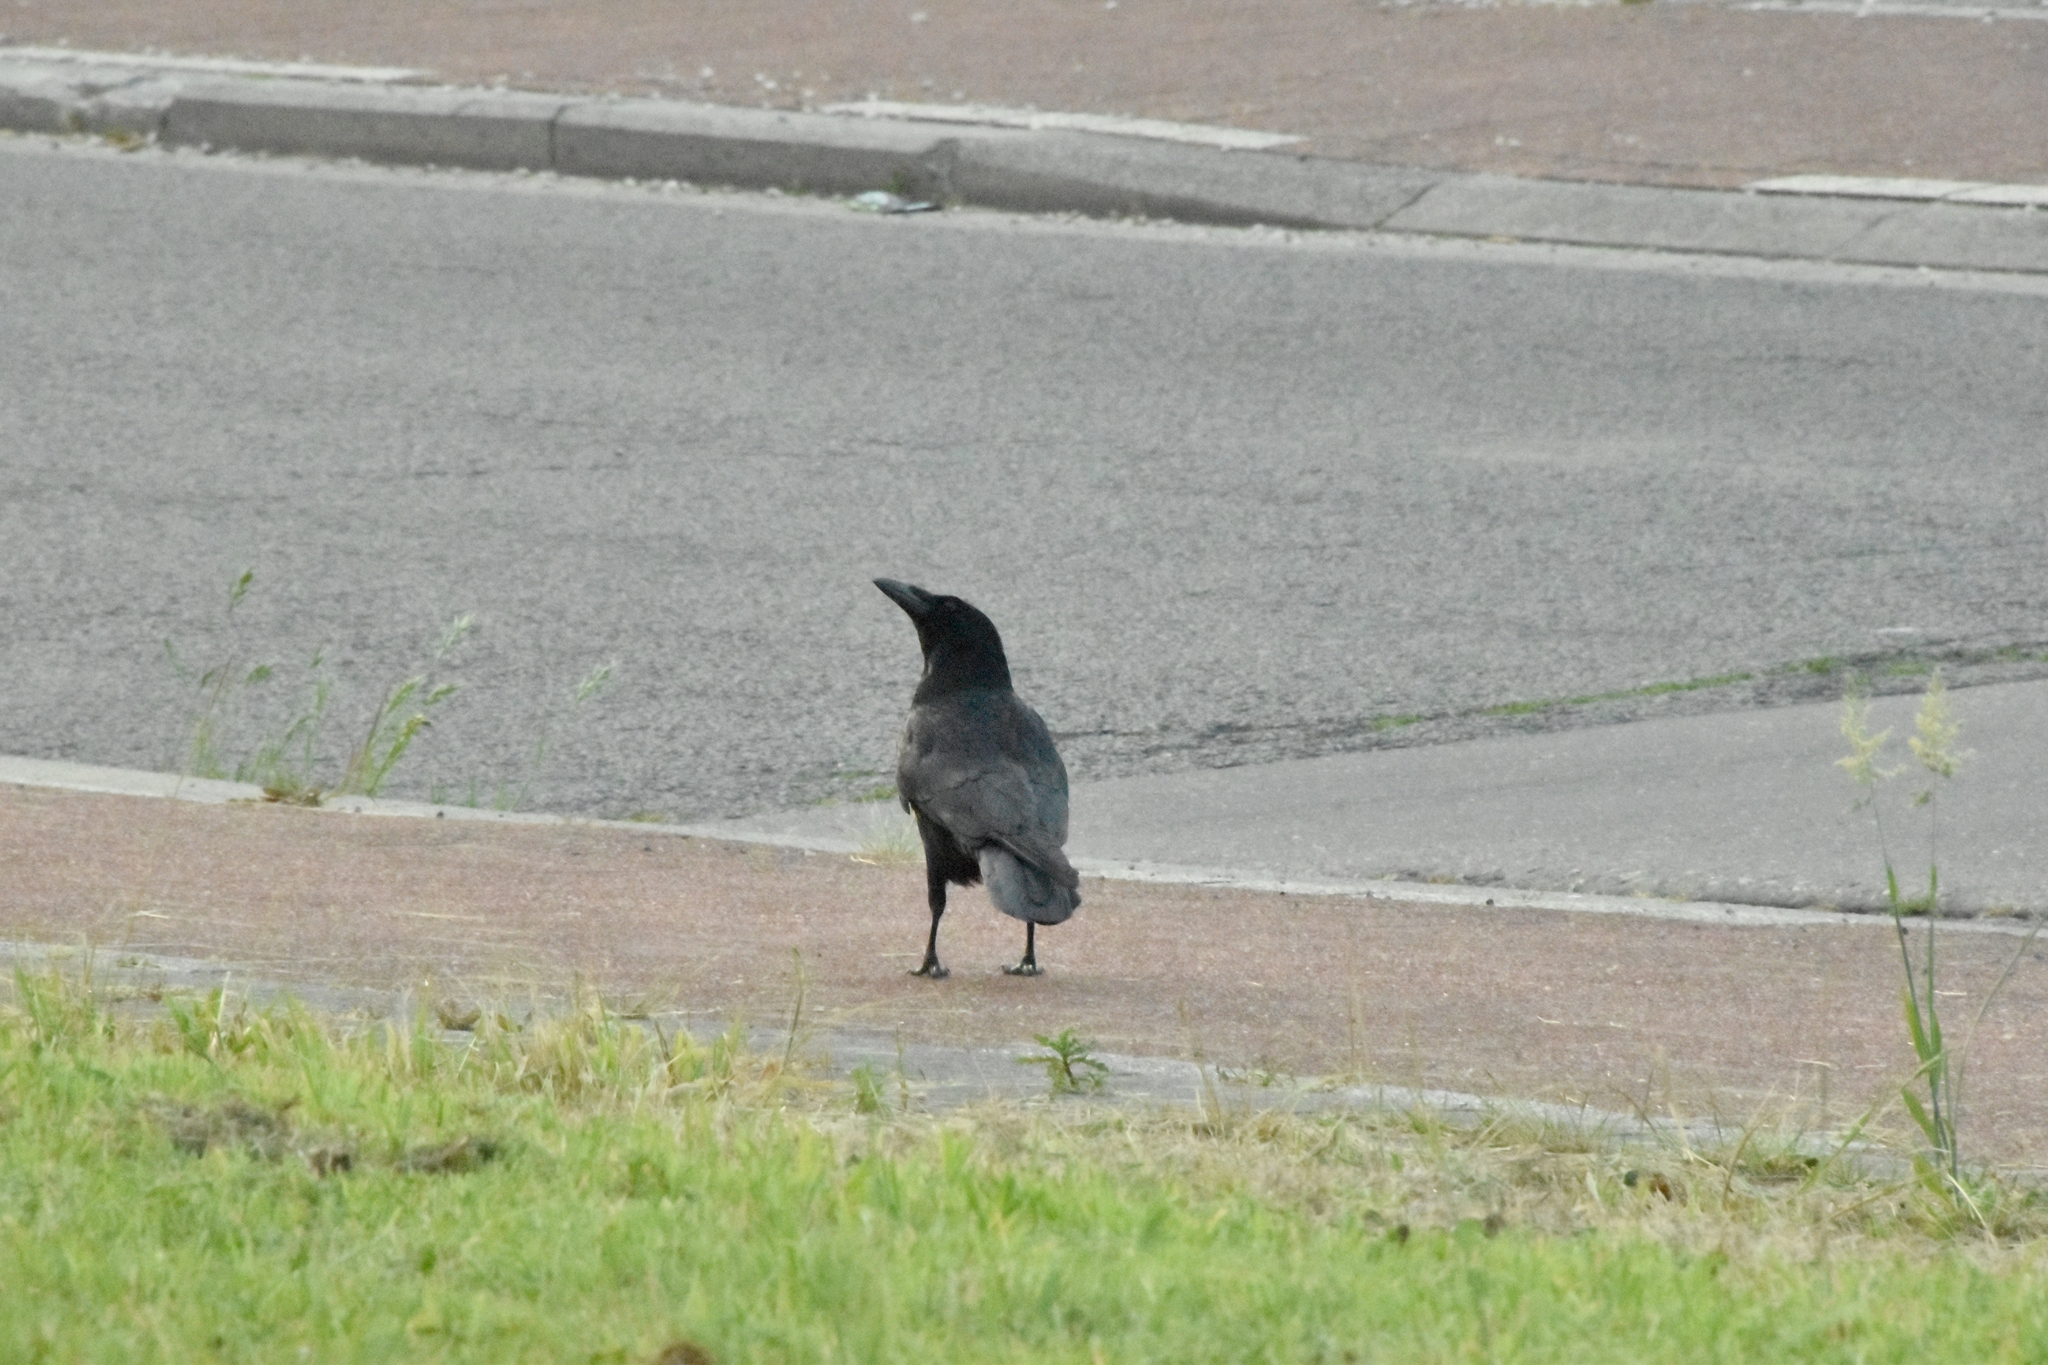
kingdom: Animalia
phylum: Chordata
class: Aves
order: Passeriformes
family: Corvidae
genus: Corvus
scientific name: Corvus corone
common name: Carrion crow
